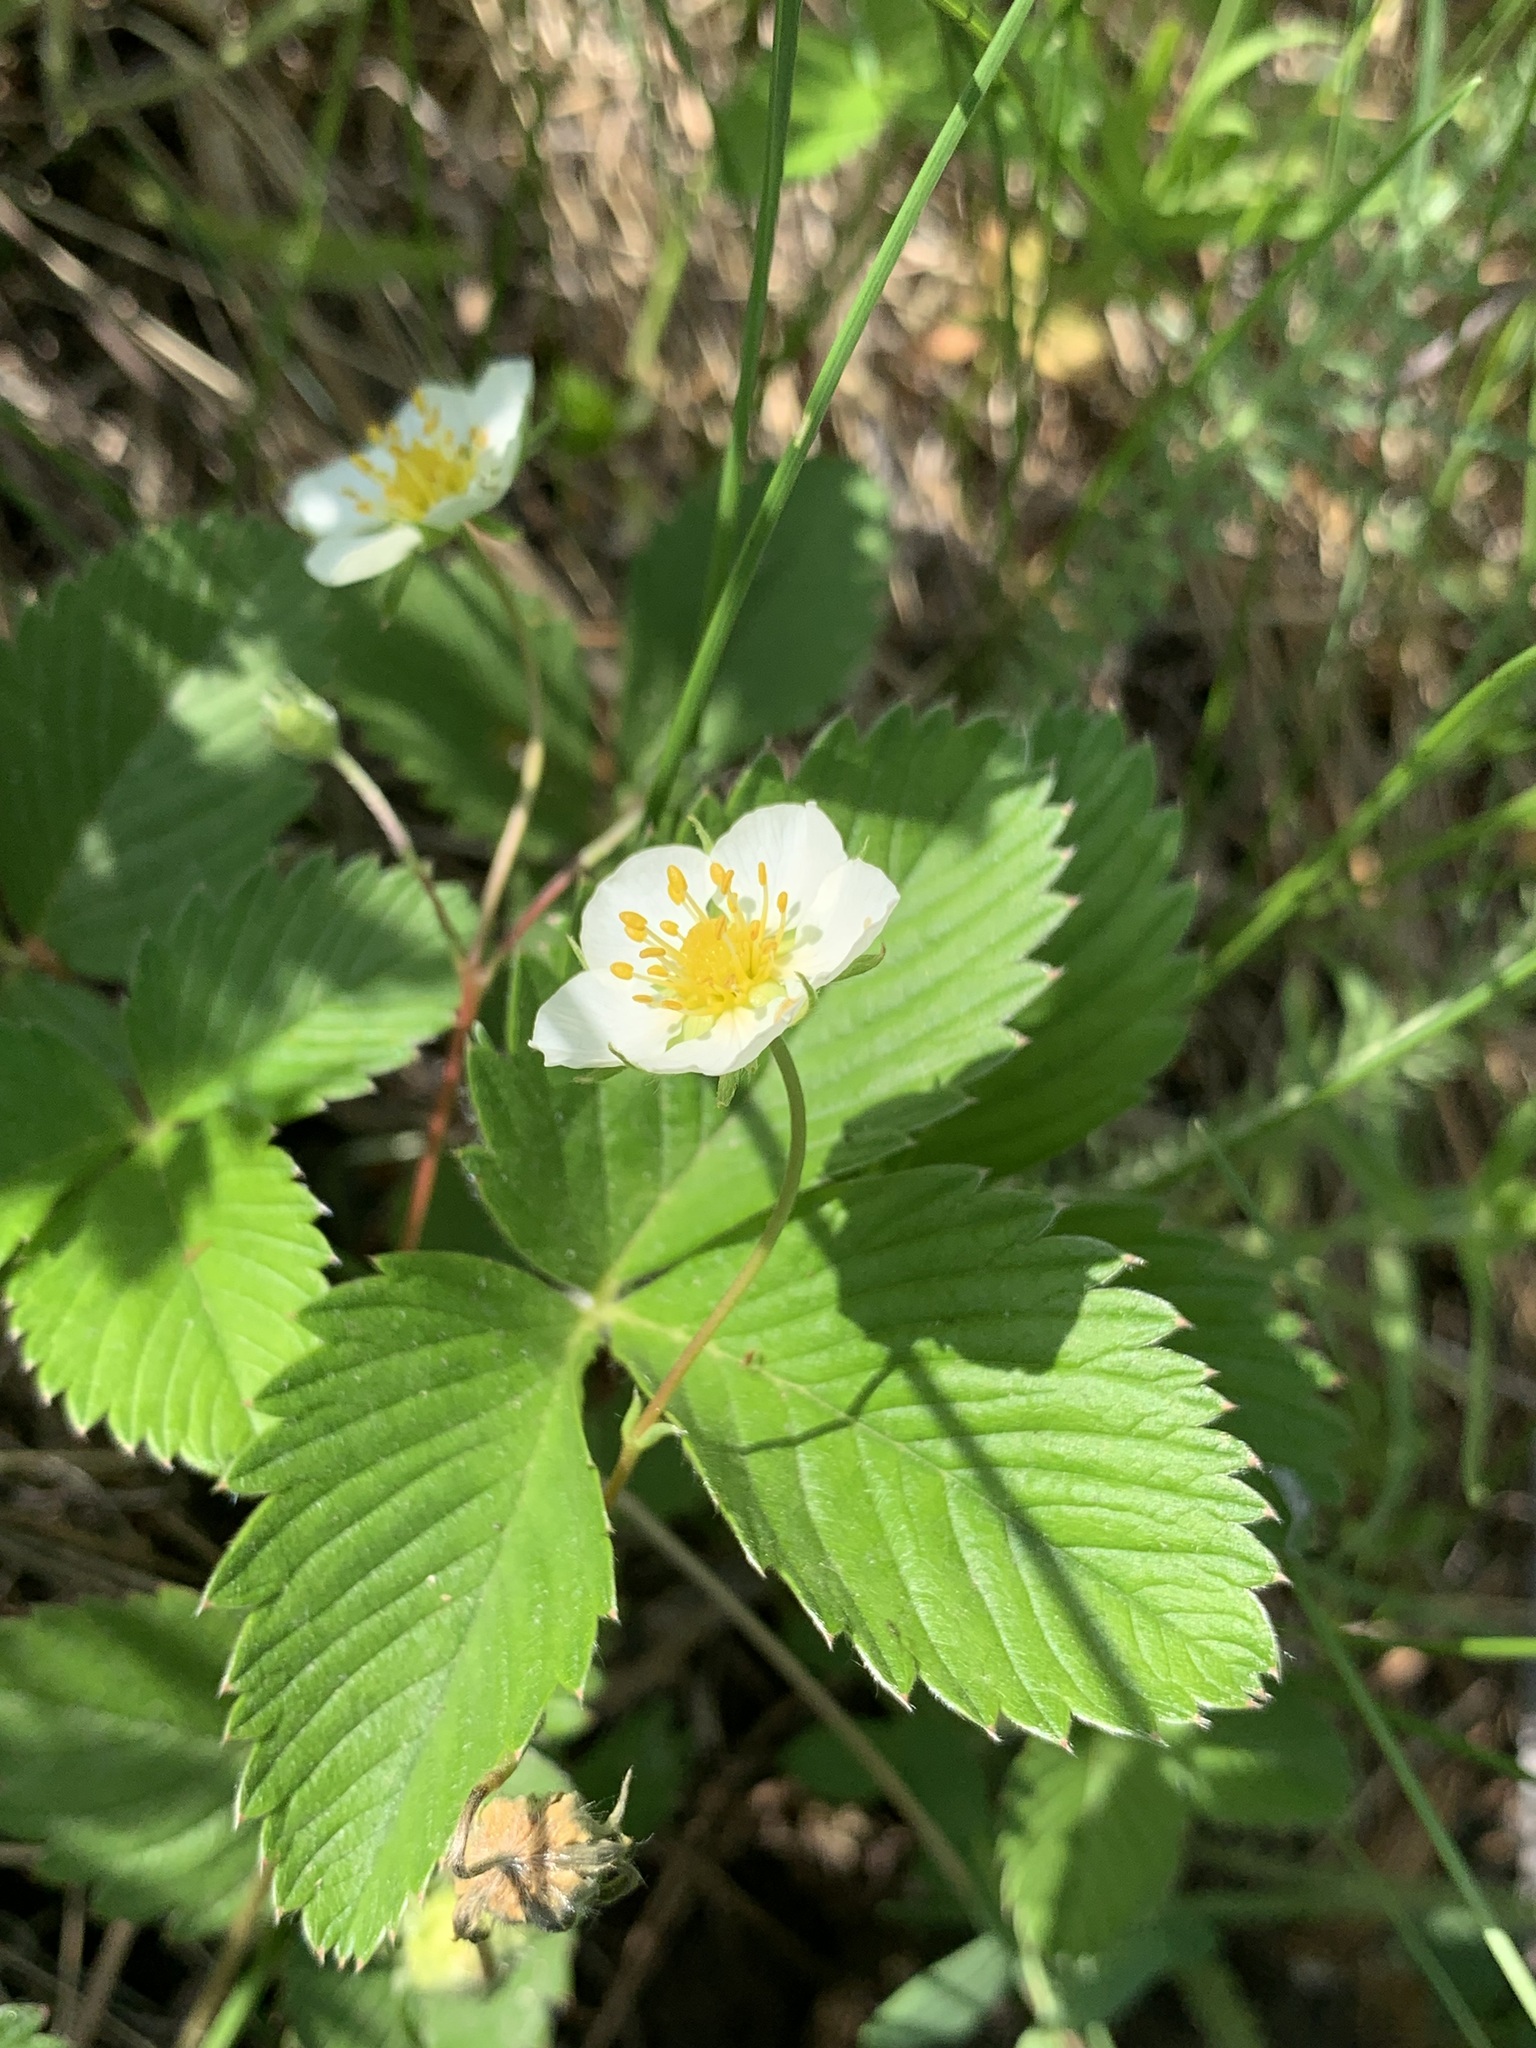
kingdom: Plantae
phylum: Tracheophyta
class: Magnoliopsida
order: Rosales
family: Rosaceae
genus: Fragaria
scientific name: Fragaria viridis
